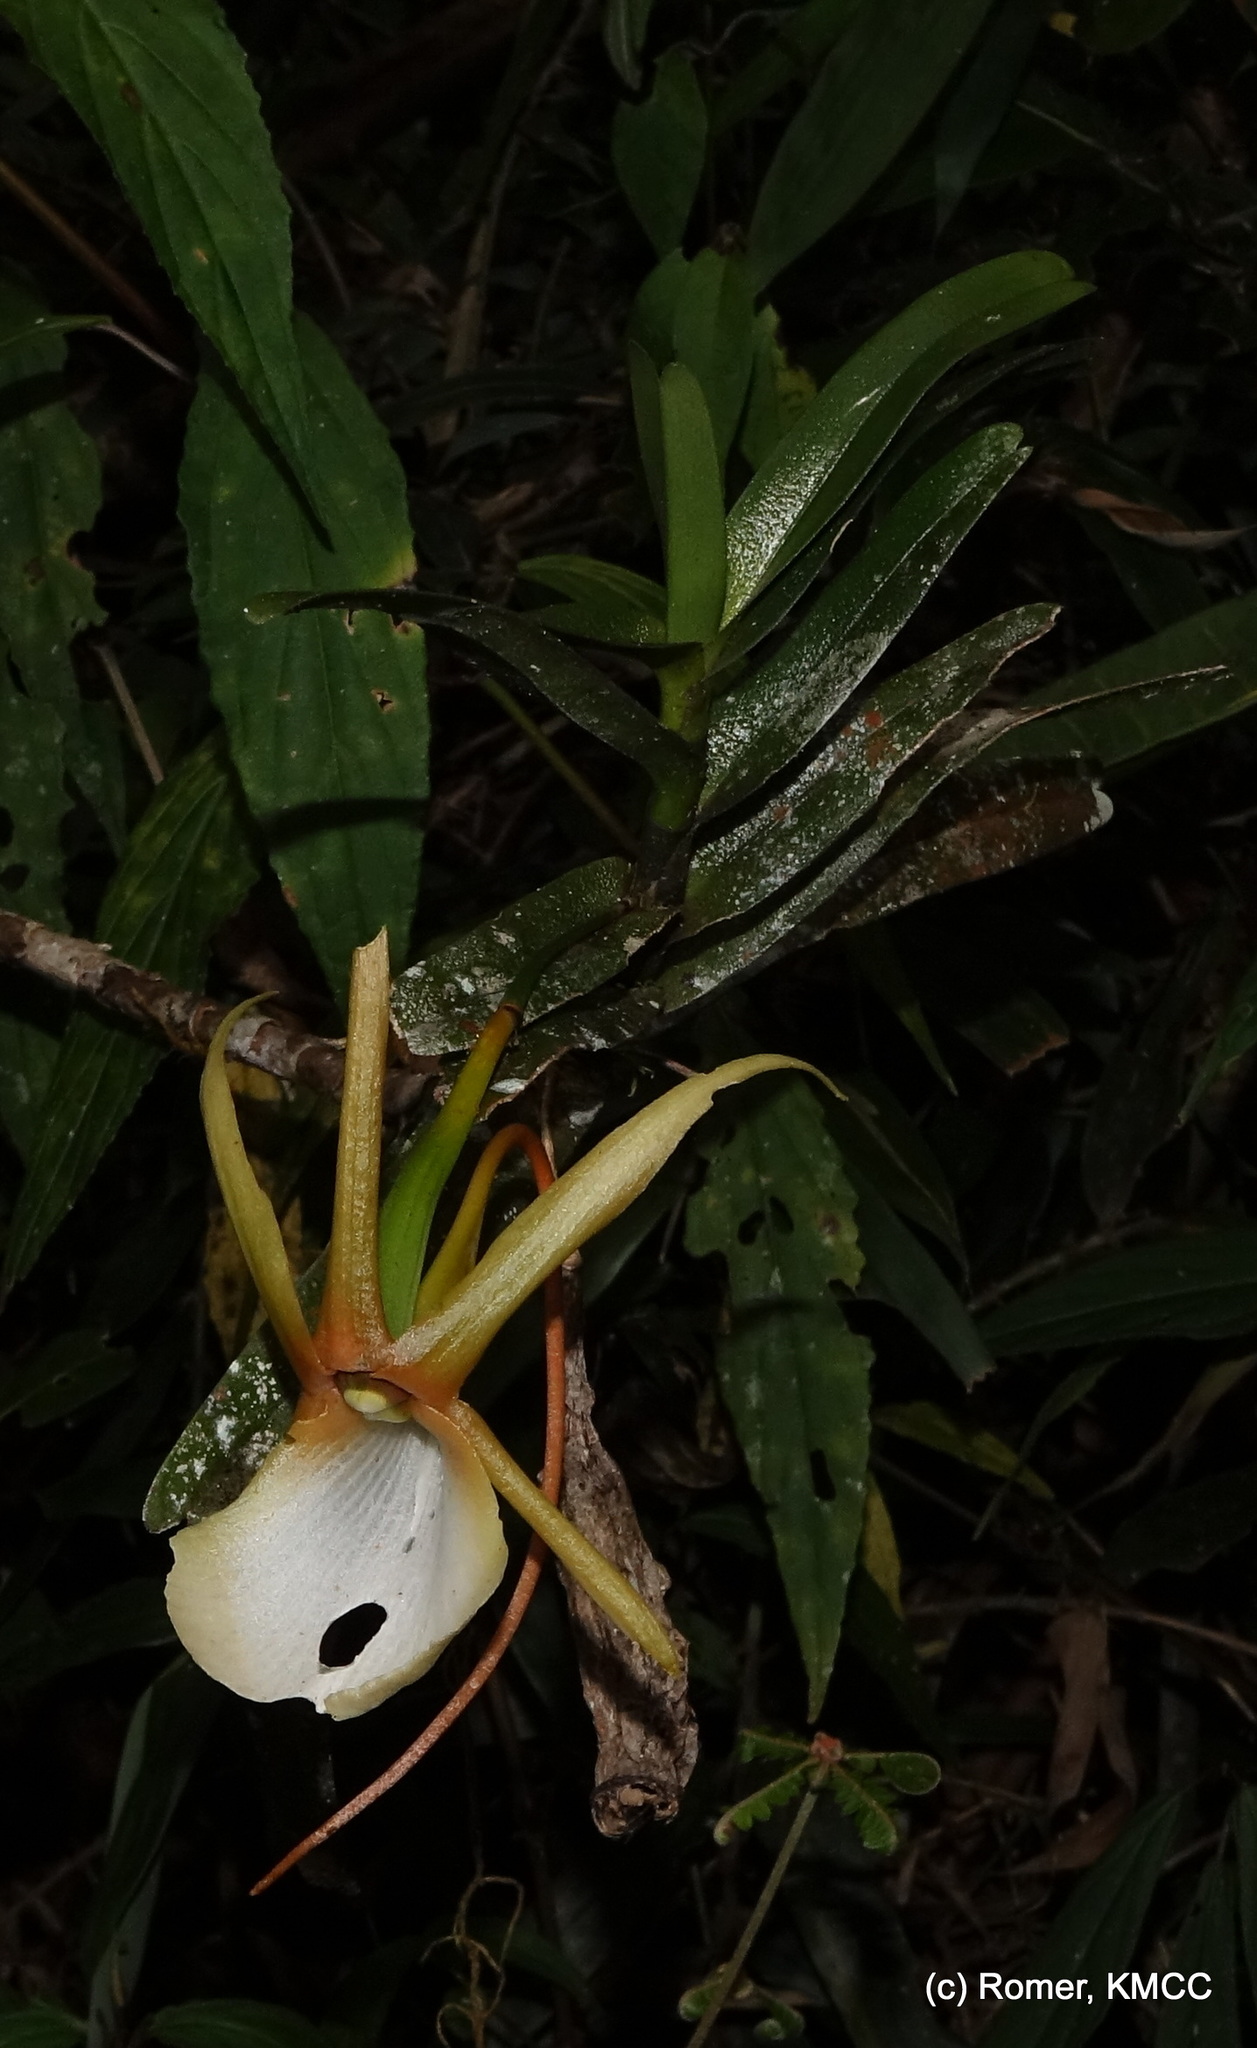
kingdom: Plantae
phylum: Tracheophyta
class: Liliopsida
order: Asparagales
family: Orchidaceae
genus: Angraecum
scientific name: Angraecum viguieri
